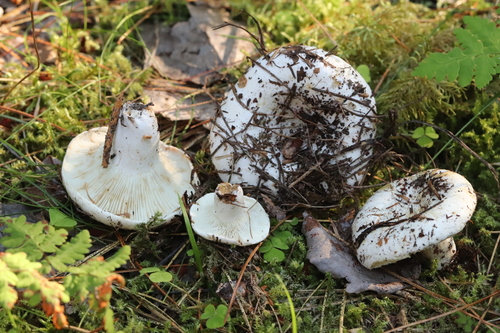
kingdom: Fungi
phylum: Basidiomycota
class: Agaricomycetes
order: Russulales
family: Russulaceae
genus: Russula
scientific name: Russula
